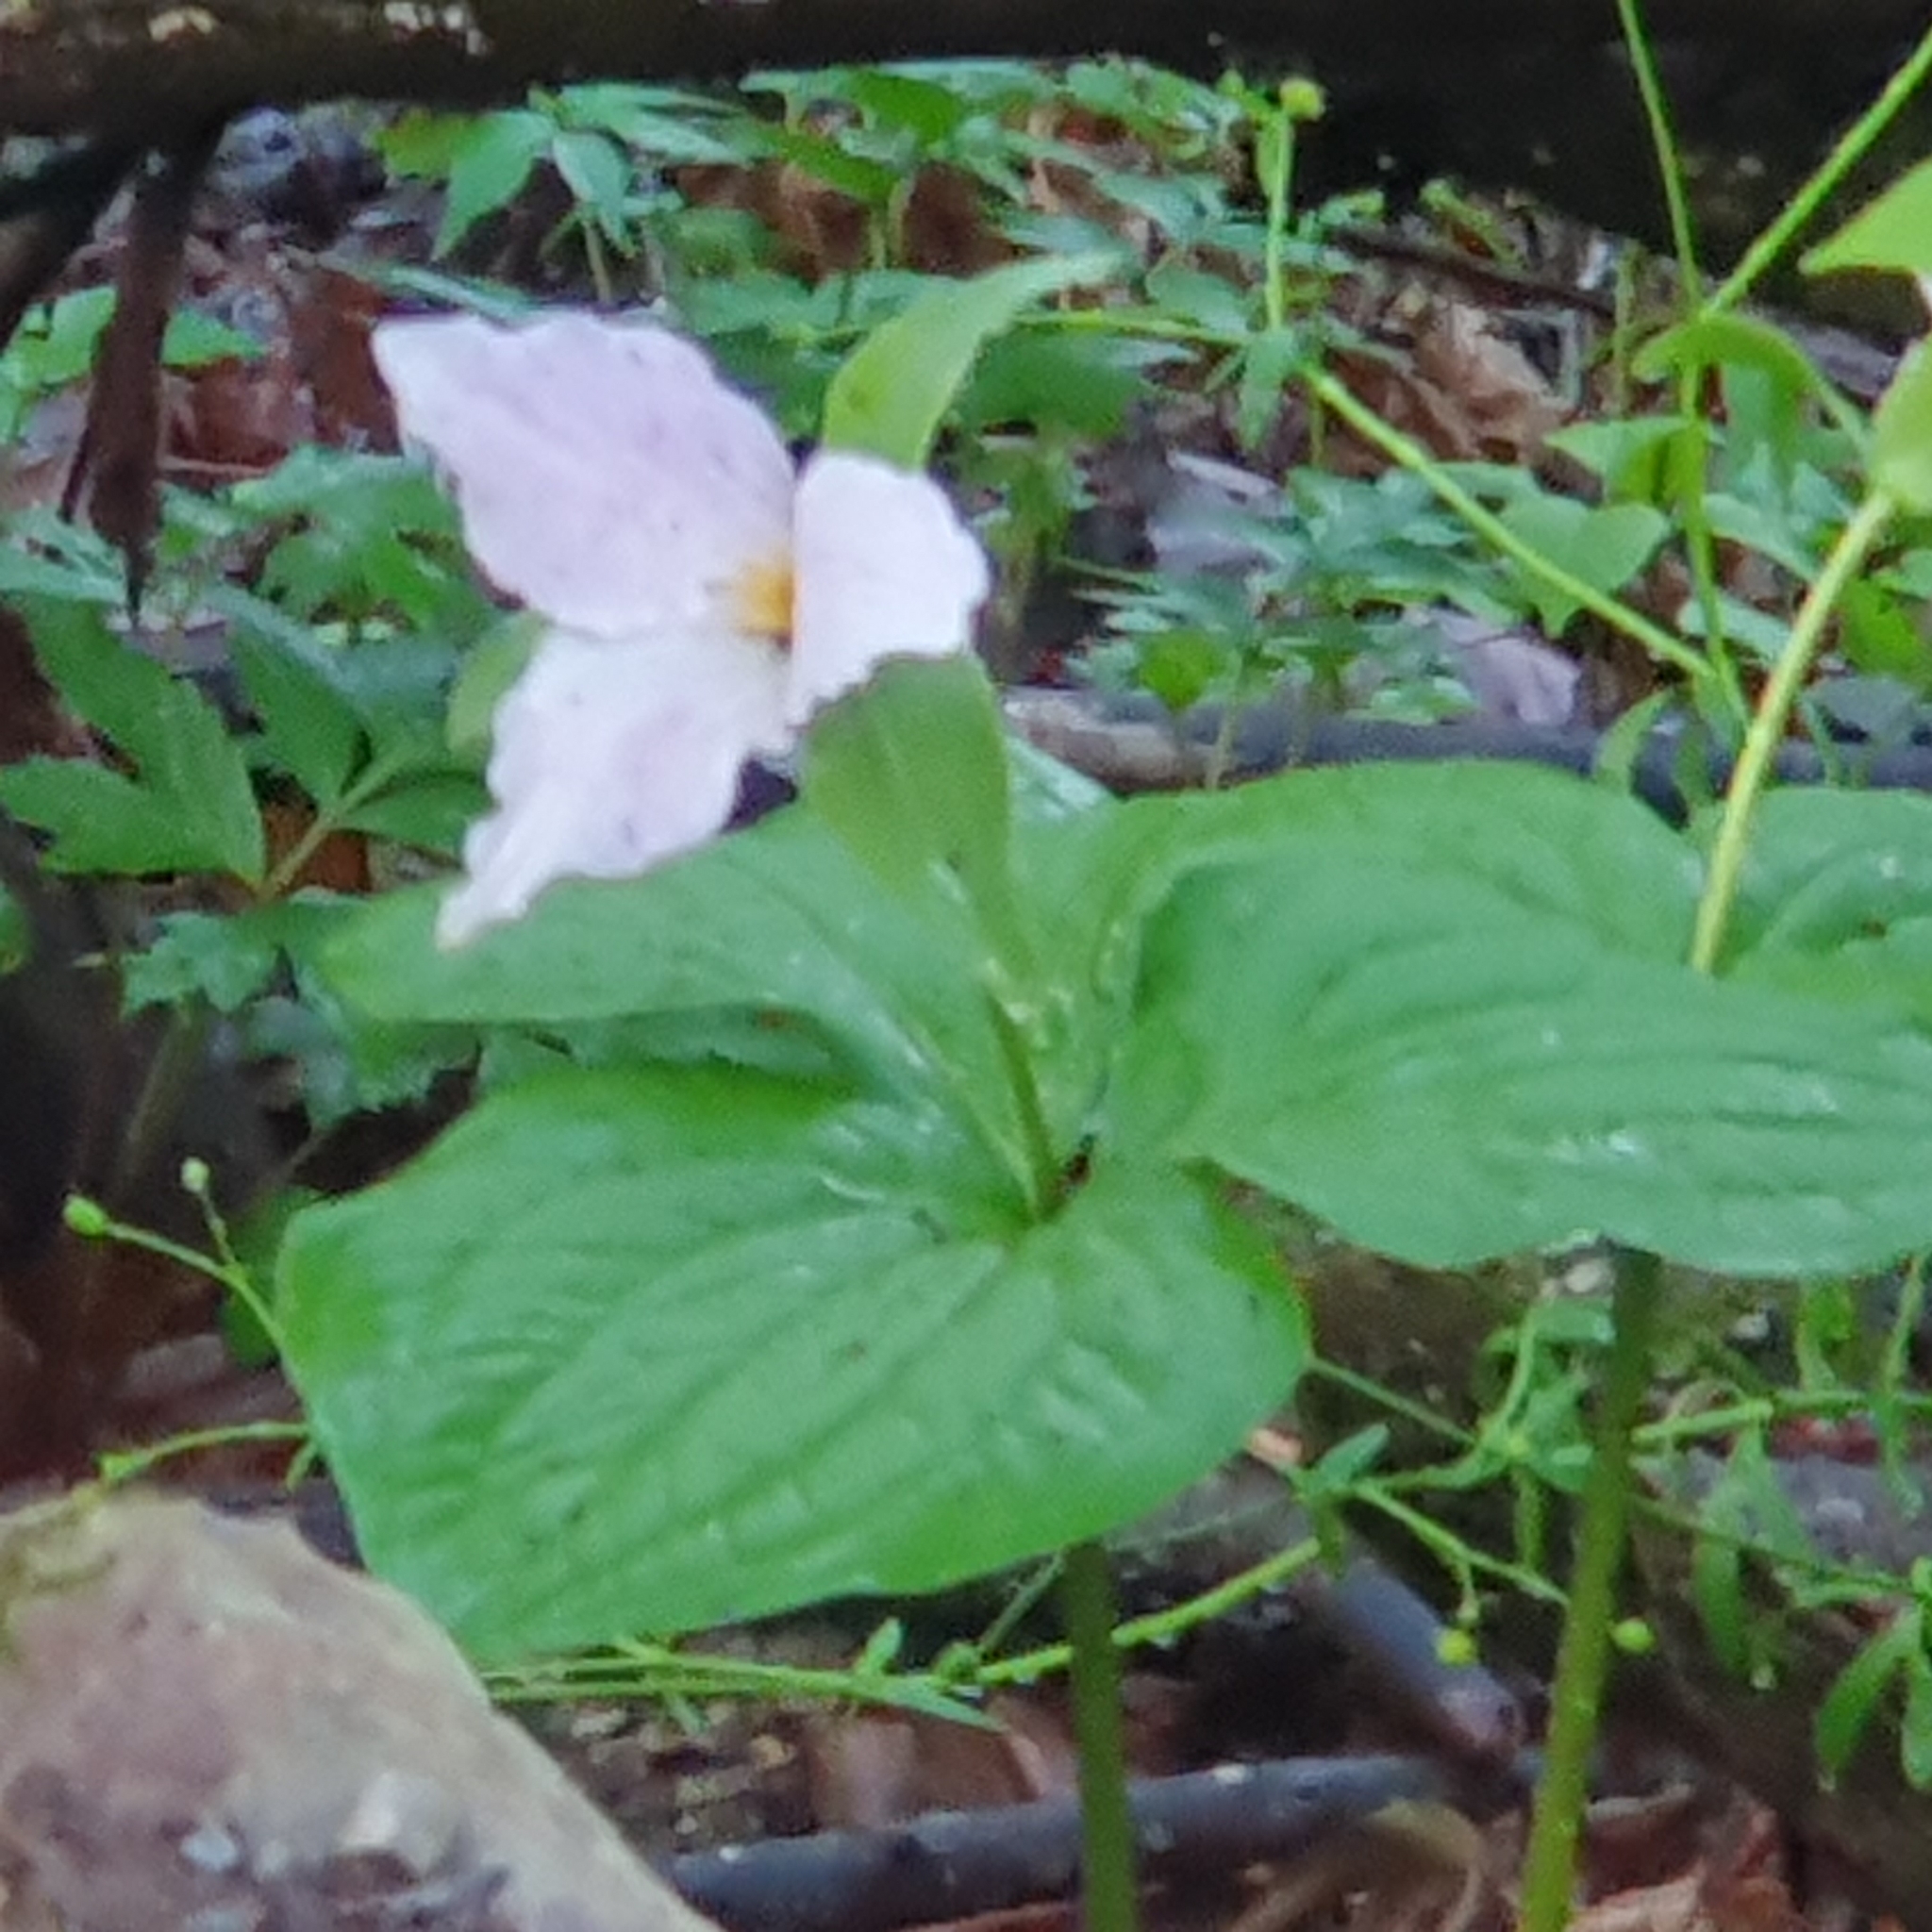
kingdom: Plantae
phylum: Tracheophyta
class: Liliopsida
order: Liliales
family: Melanthiaceae
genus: Trillium
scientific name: Trillium grandiflorum
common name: Great white trillium
